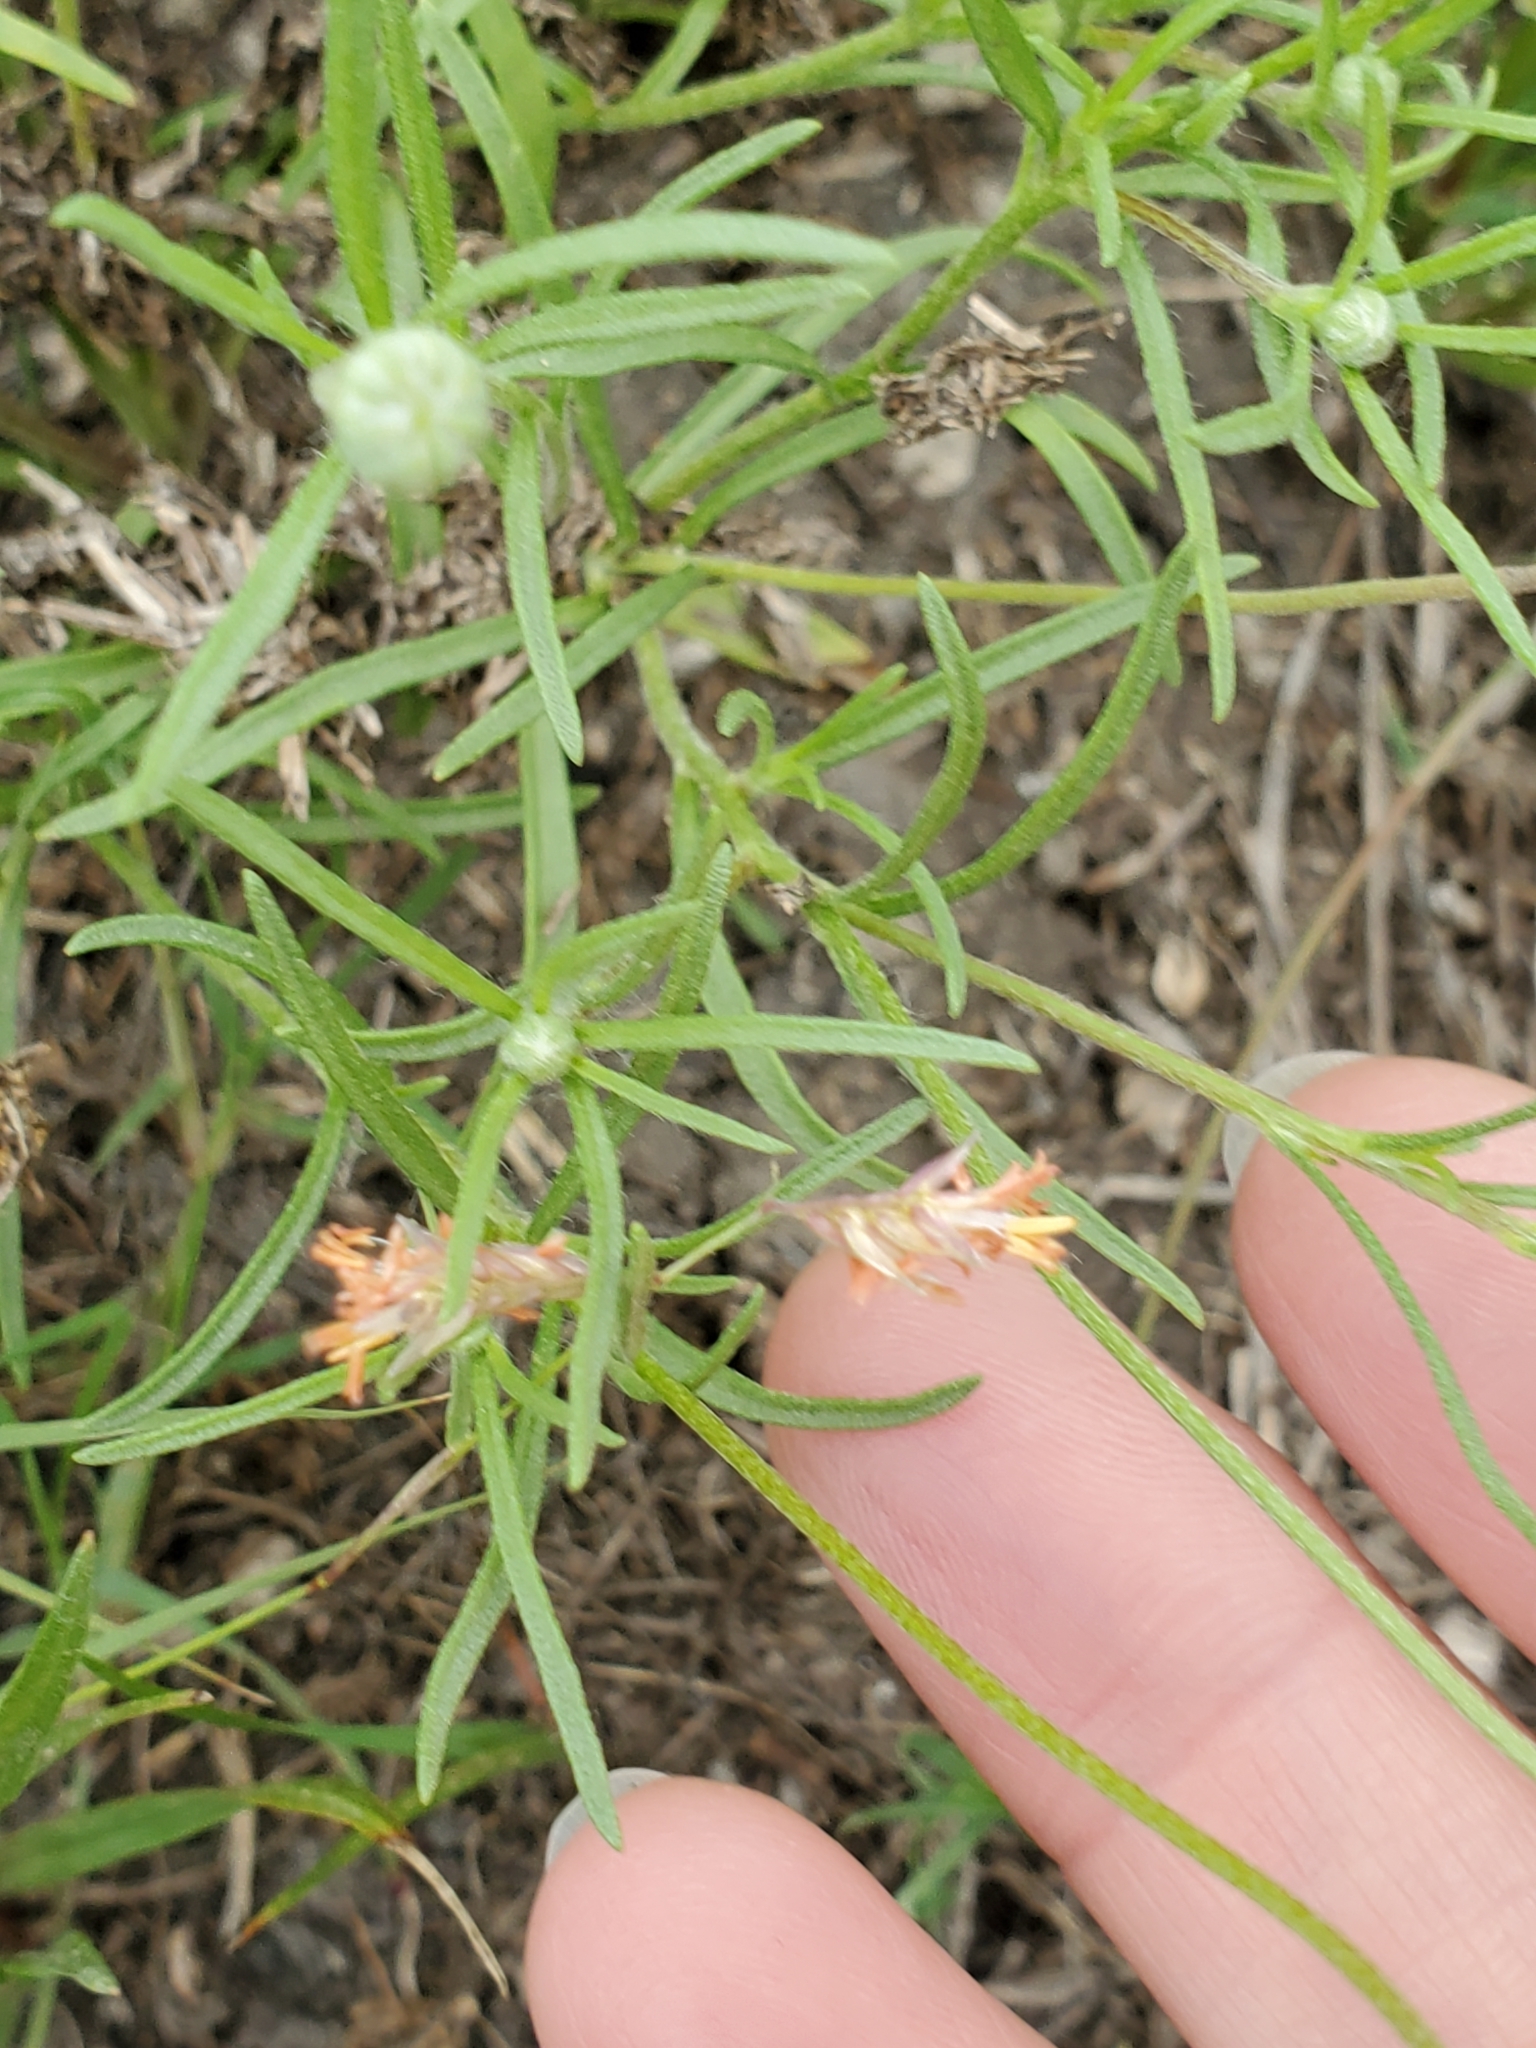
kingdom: Plantae
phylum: Tracheophyta
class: Magnoliopsida
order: Asterales
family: Asteraceae
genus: Tetraneuris
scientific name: Tetraneuris linearifolia
